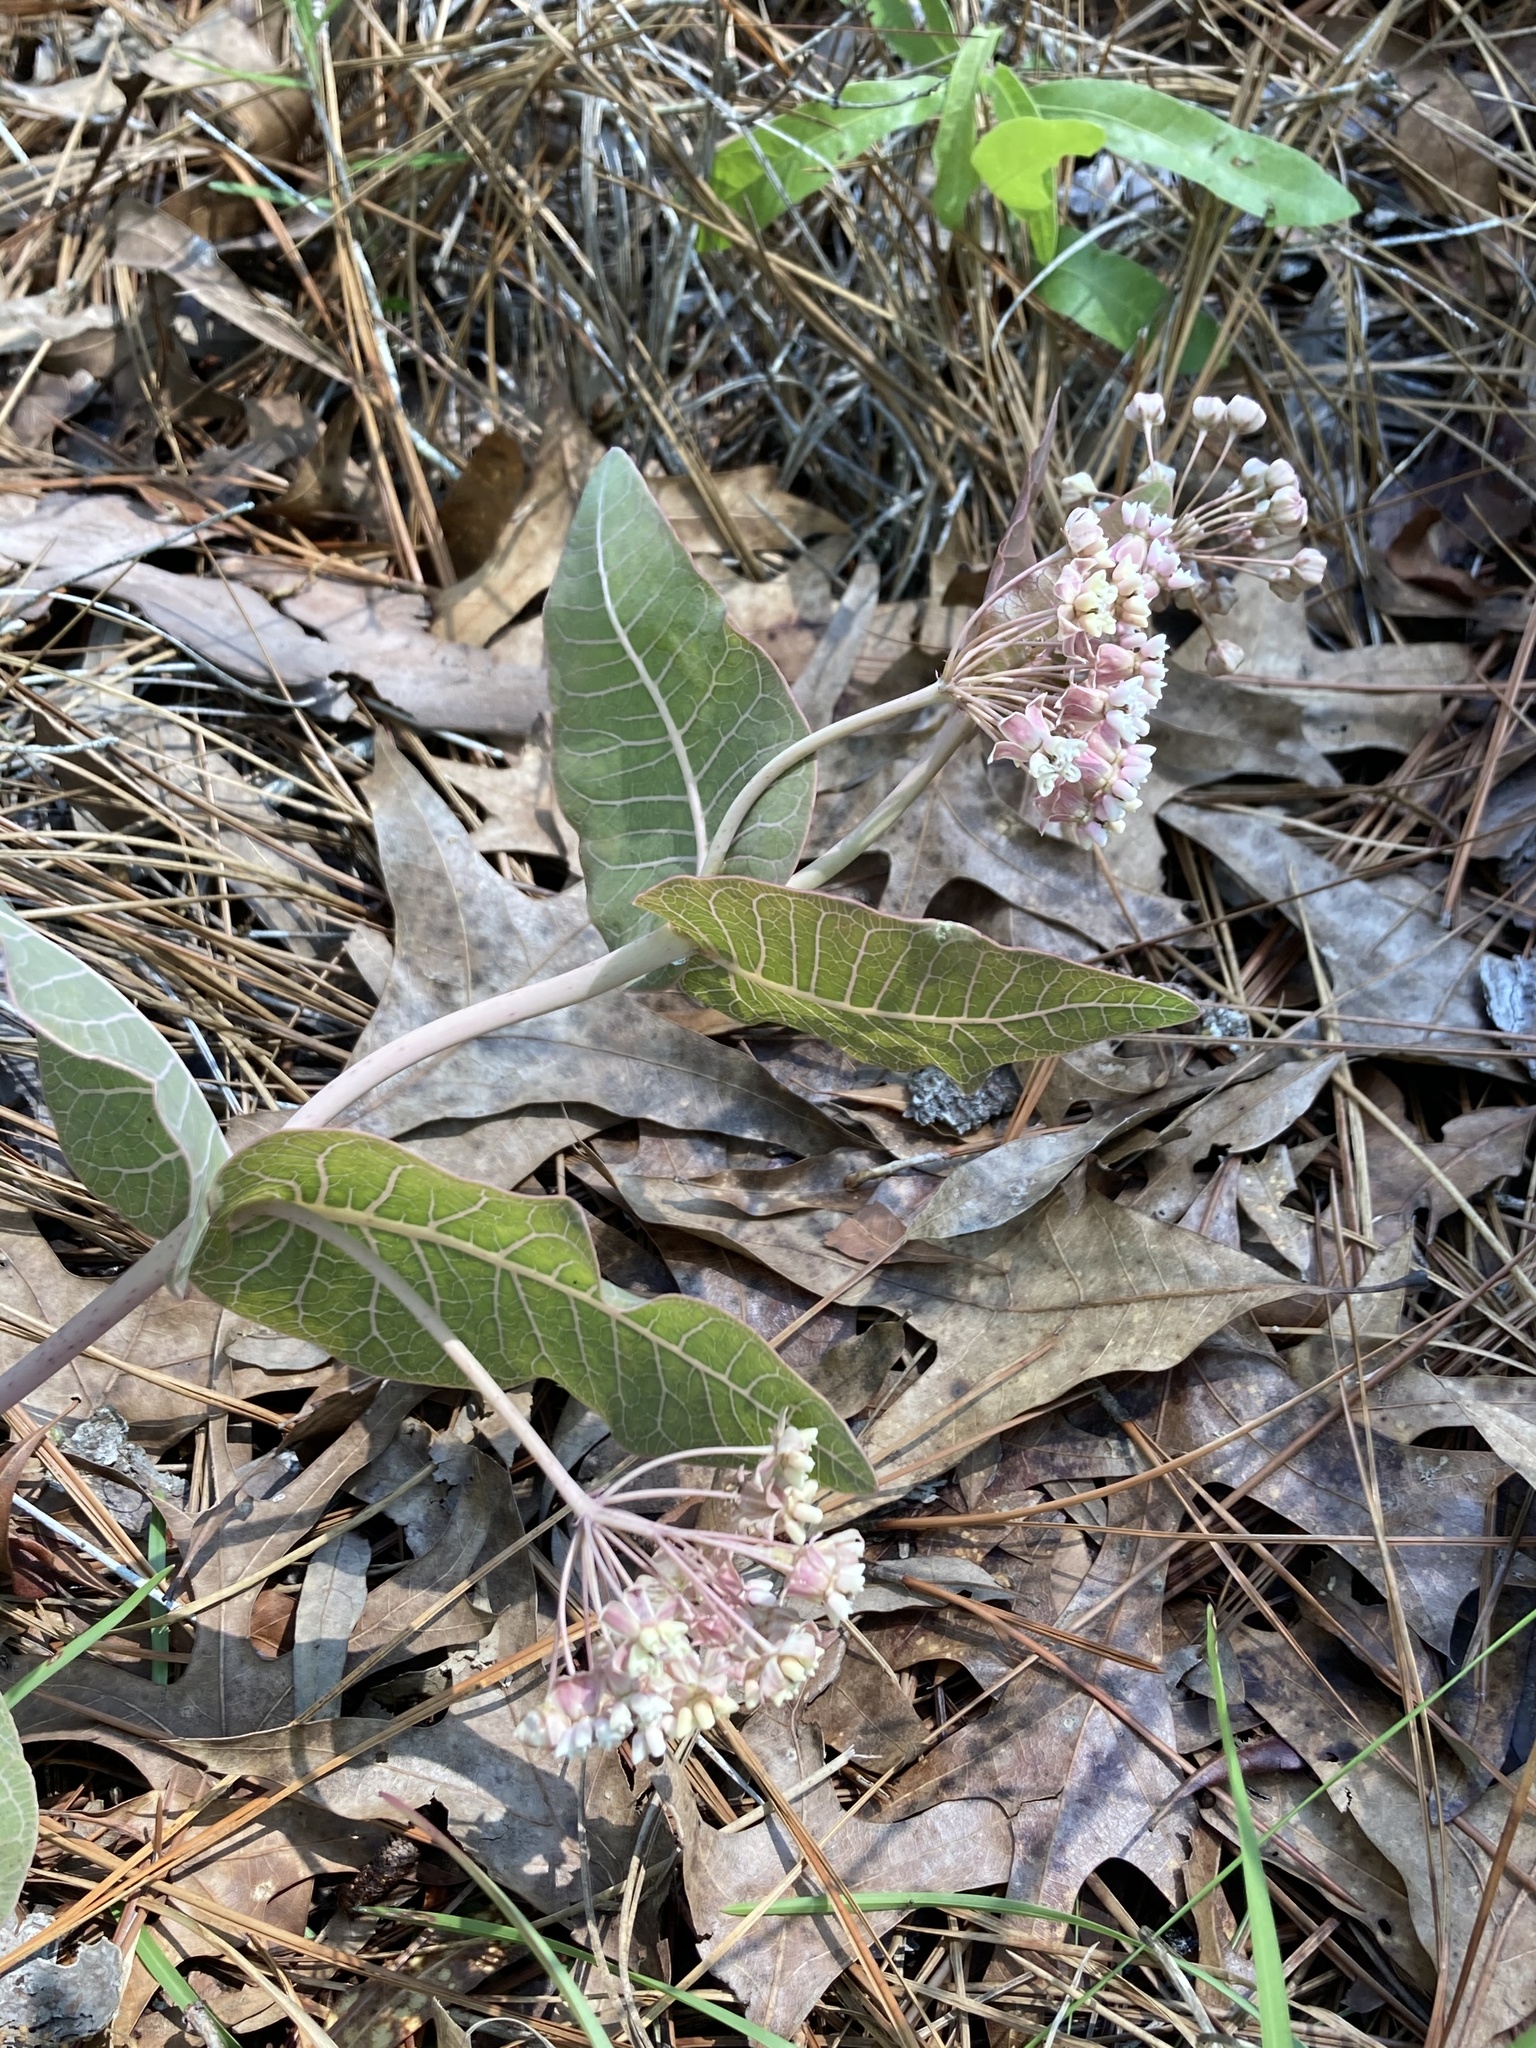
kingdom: Plantae
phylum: Tracheophyta
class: Magnoliopsida
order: Gentianales
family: Apocynaceae
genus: Asclepias
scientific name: Asclepias humistrata
